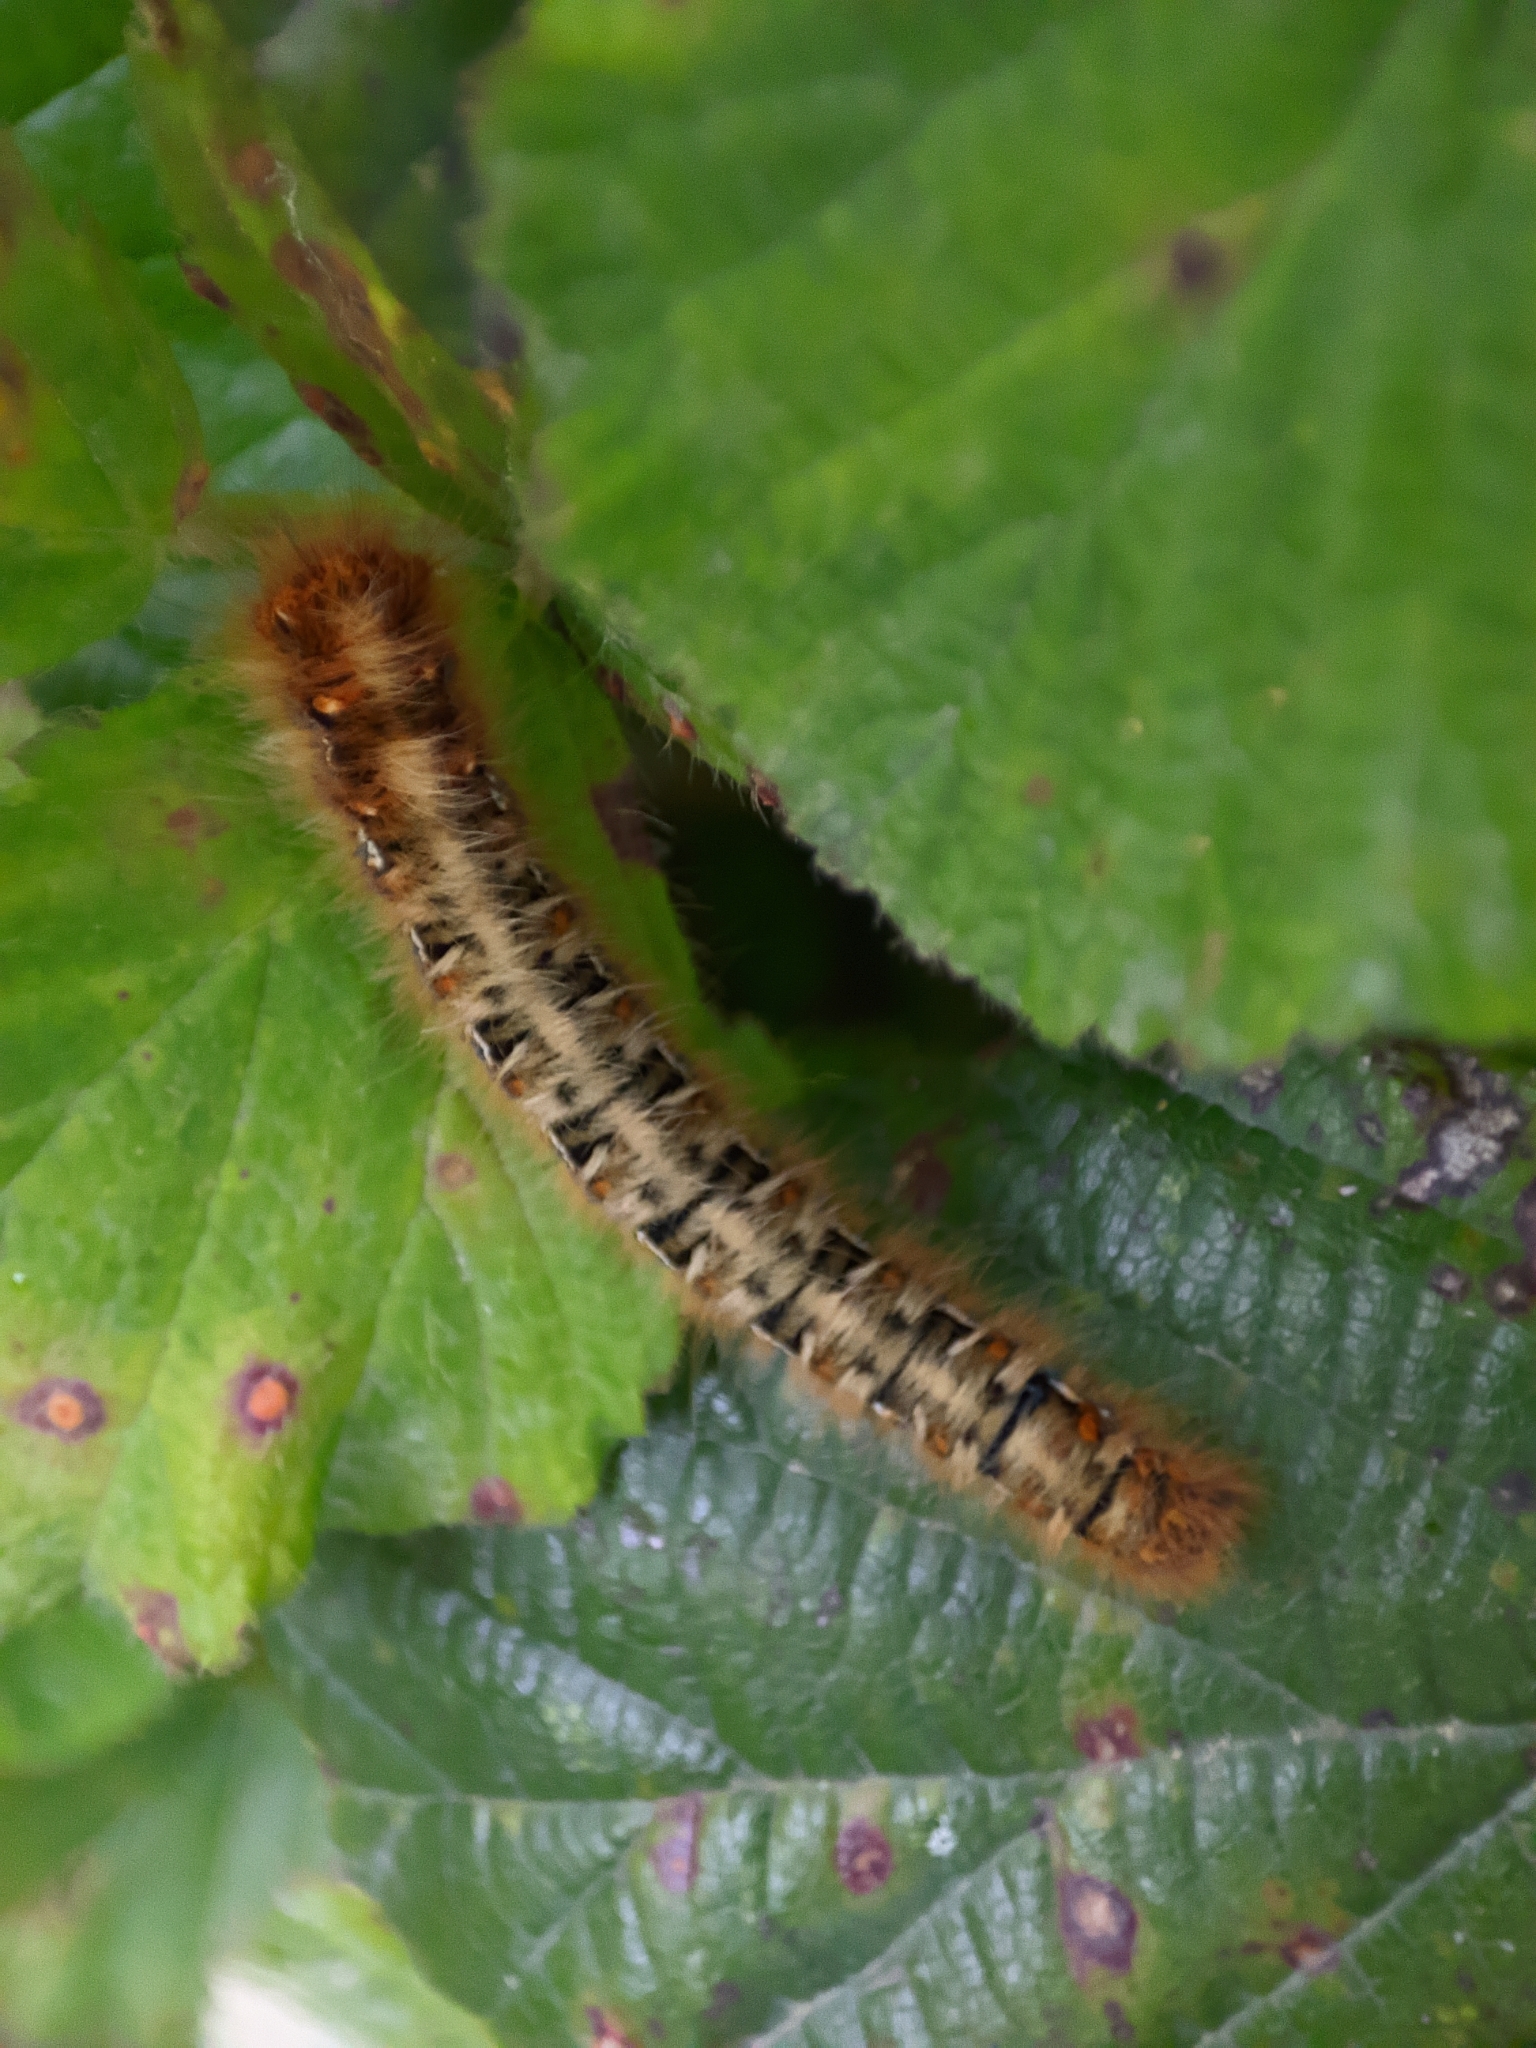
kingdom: Animalia
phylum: Arthropoda
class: Insecta
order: Lepidoptera
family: Lasiocampidae
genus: Lasiocampa
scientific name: Lasiocampa quercus
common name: Oak eggar
